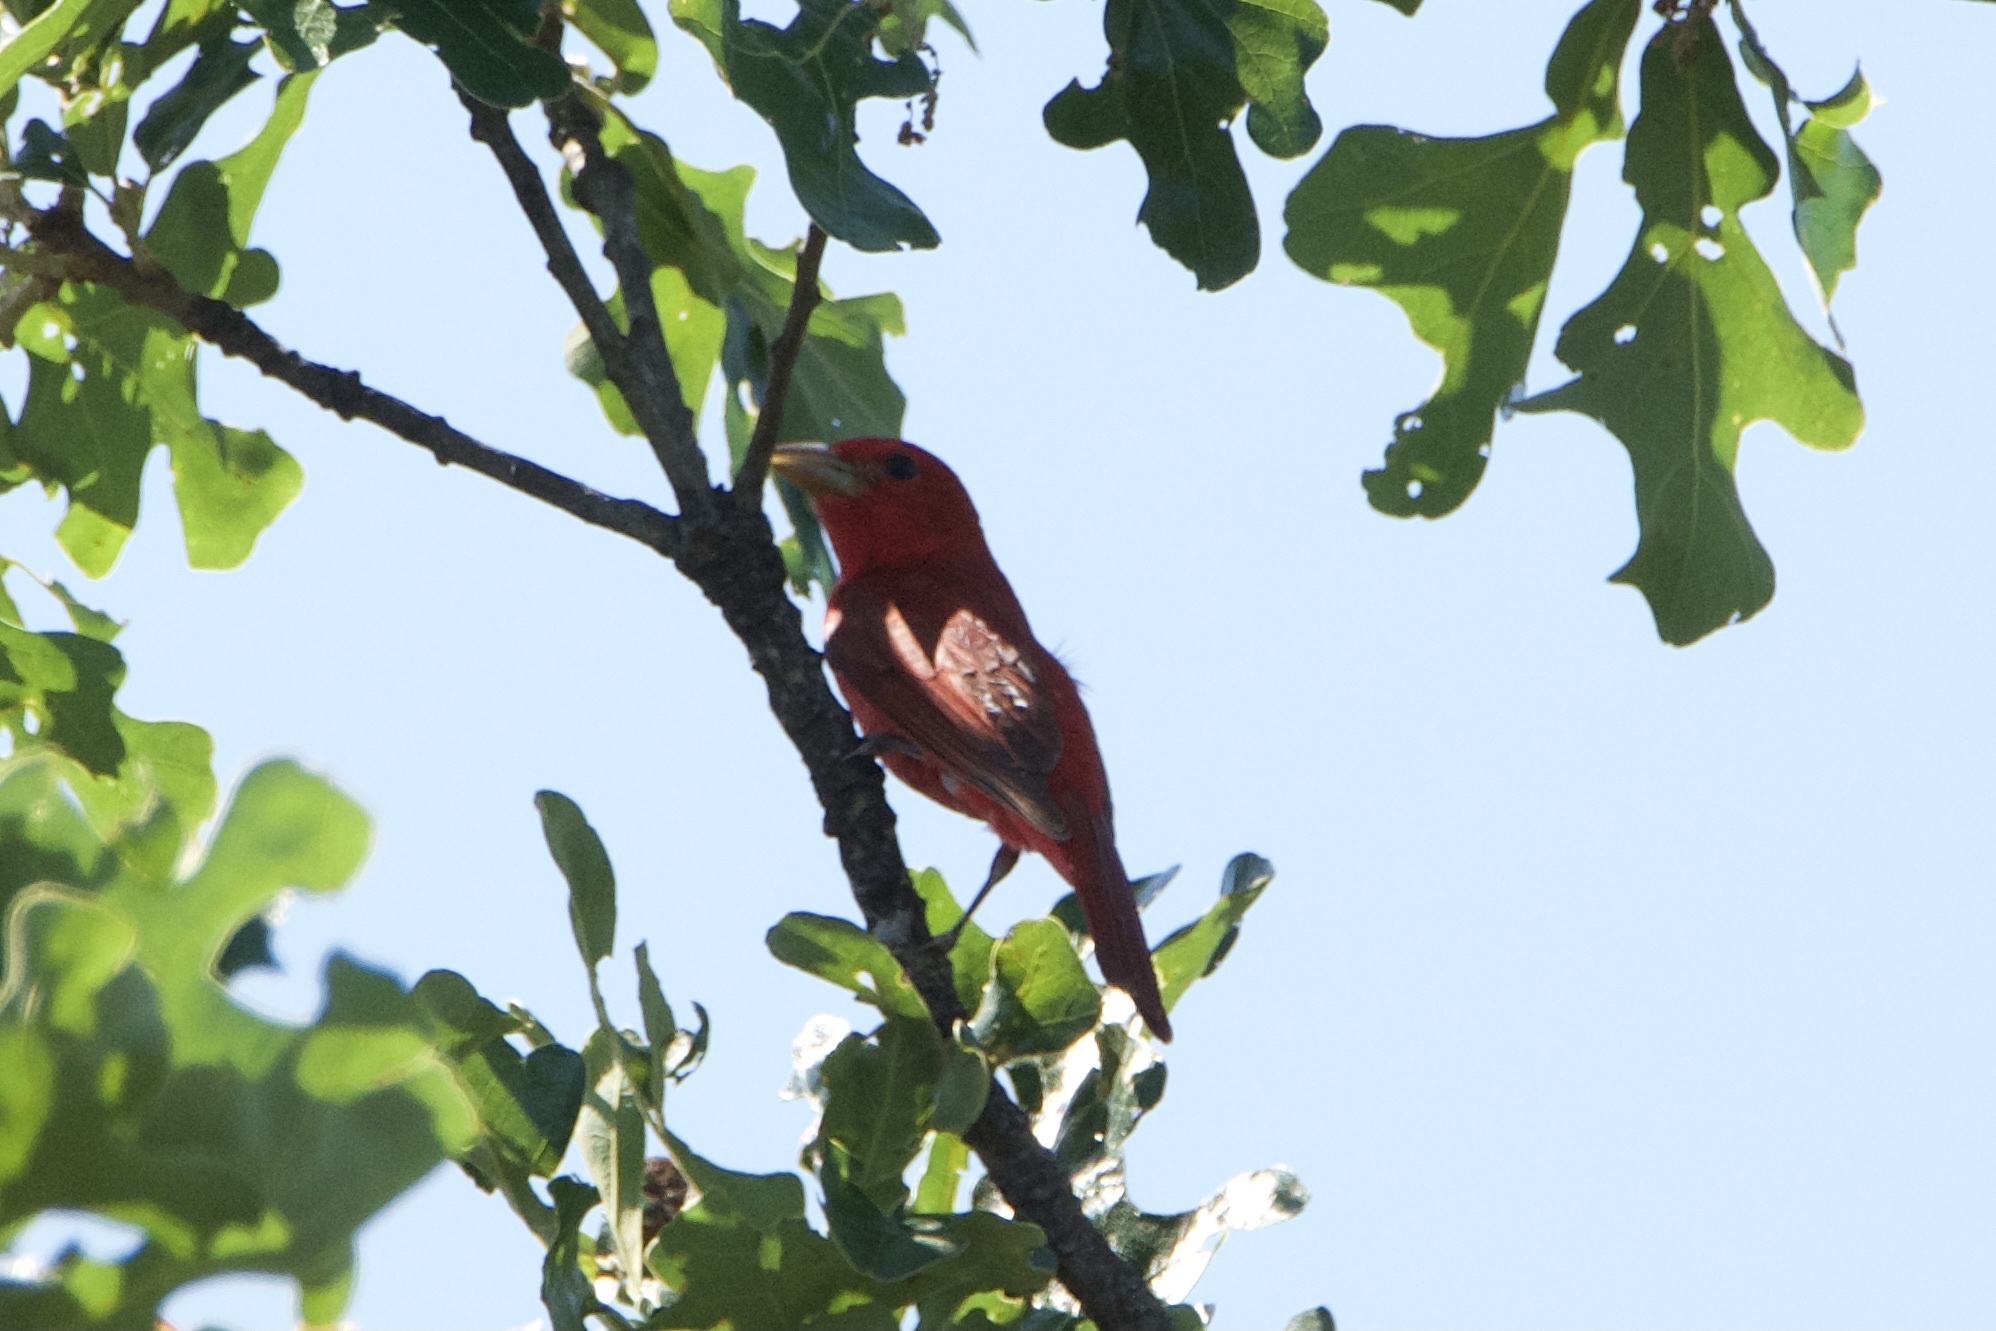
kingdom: Animalia
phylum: Chordata
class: Aves
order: Passeriformes
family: Cardinalidae
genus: Piranga
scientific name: Piranga rubra
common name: Summer tanager
